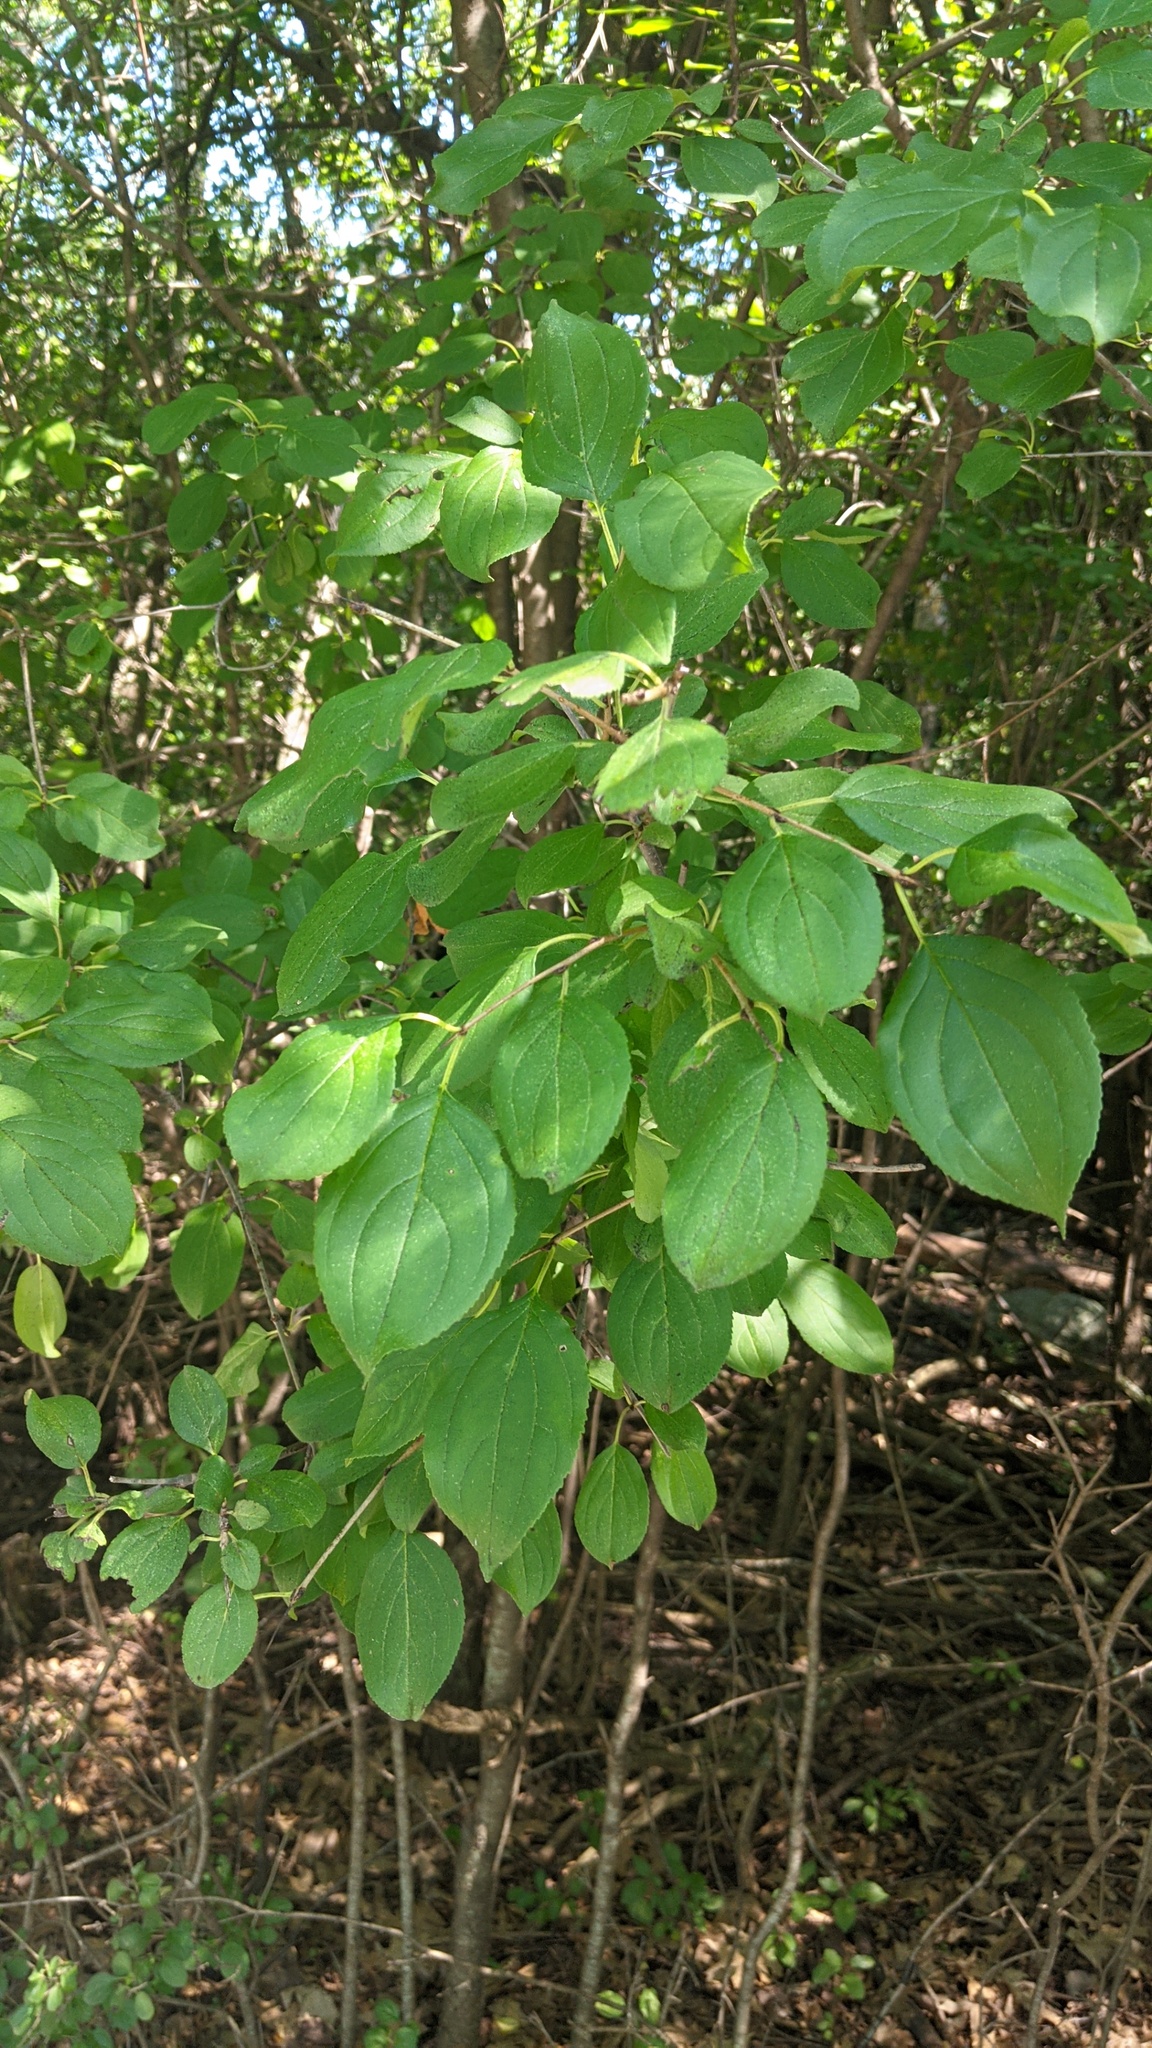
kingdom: Plantae
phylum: Tracheophyta
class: Magnoliopsida
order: Rosales
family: Rhamnaceae
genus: Rhamnus
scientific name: Rhamnus cathartica
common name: Common buckthorn
